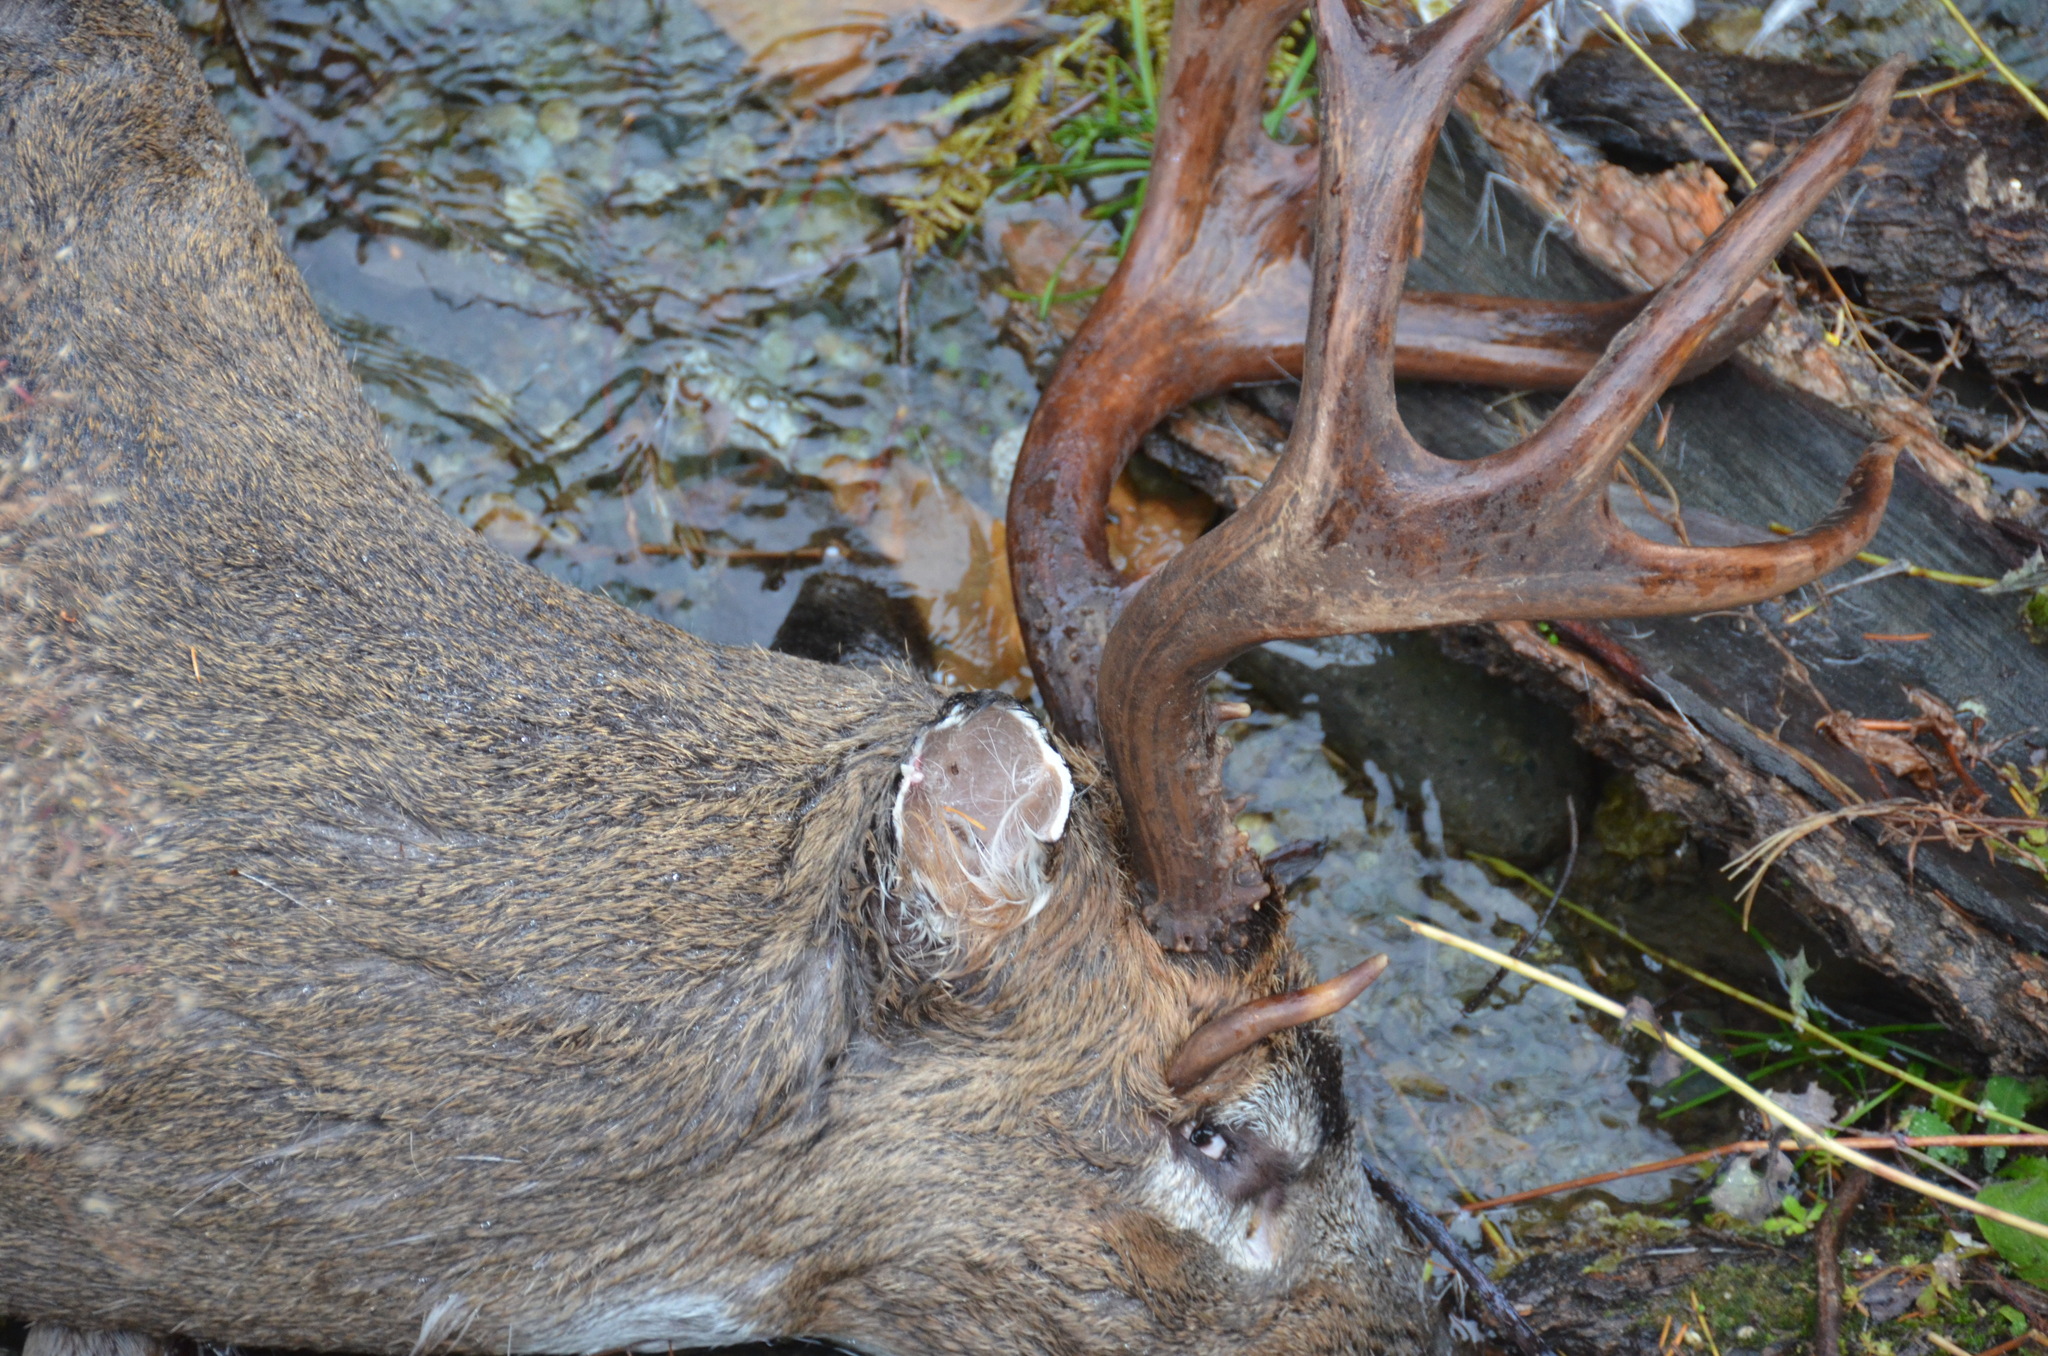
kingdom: Animalia
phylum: Chordata
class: Mammalia
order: Artiodactyla
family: Cervidae
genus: Odocoileus
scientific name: Odocoileus hemionus
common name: Mule deer
